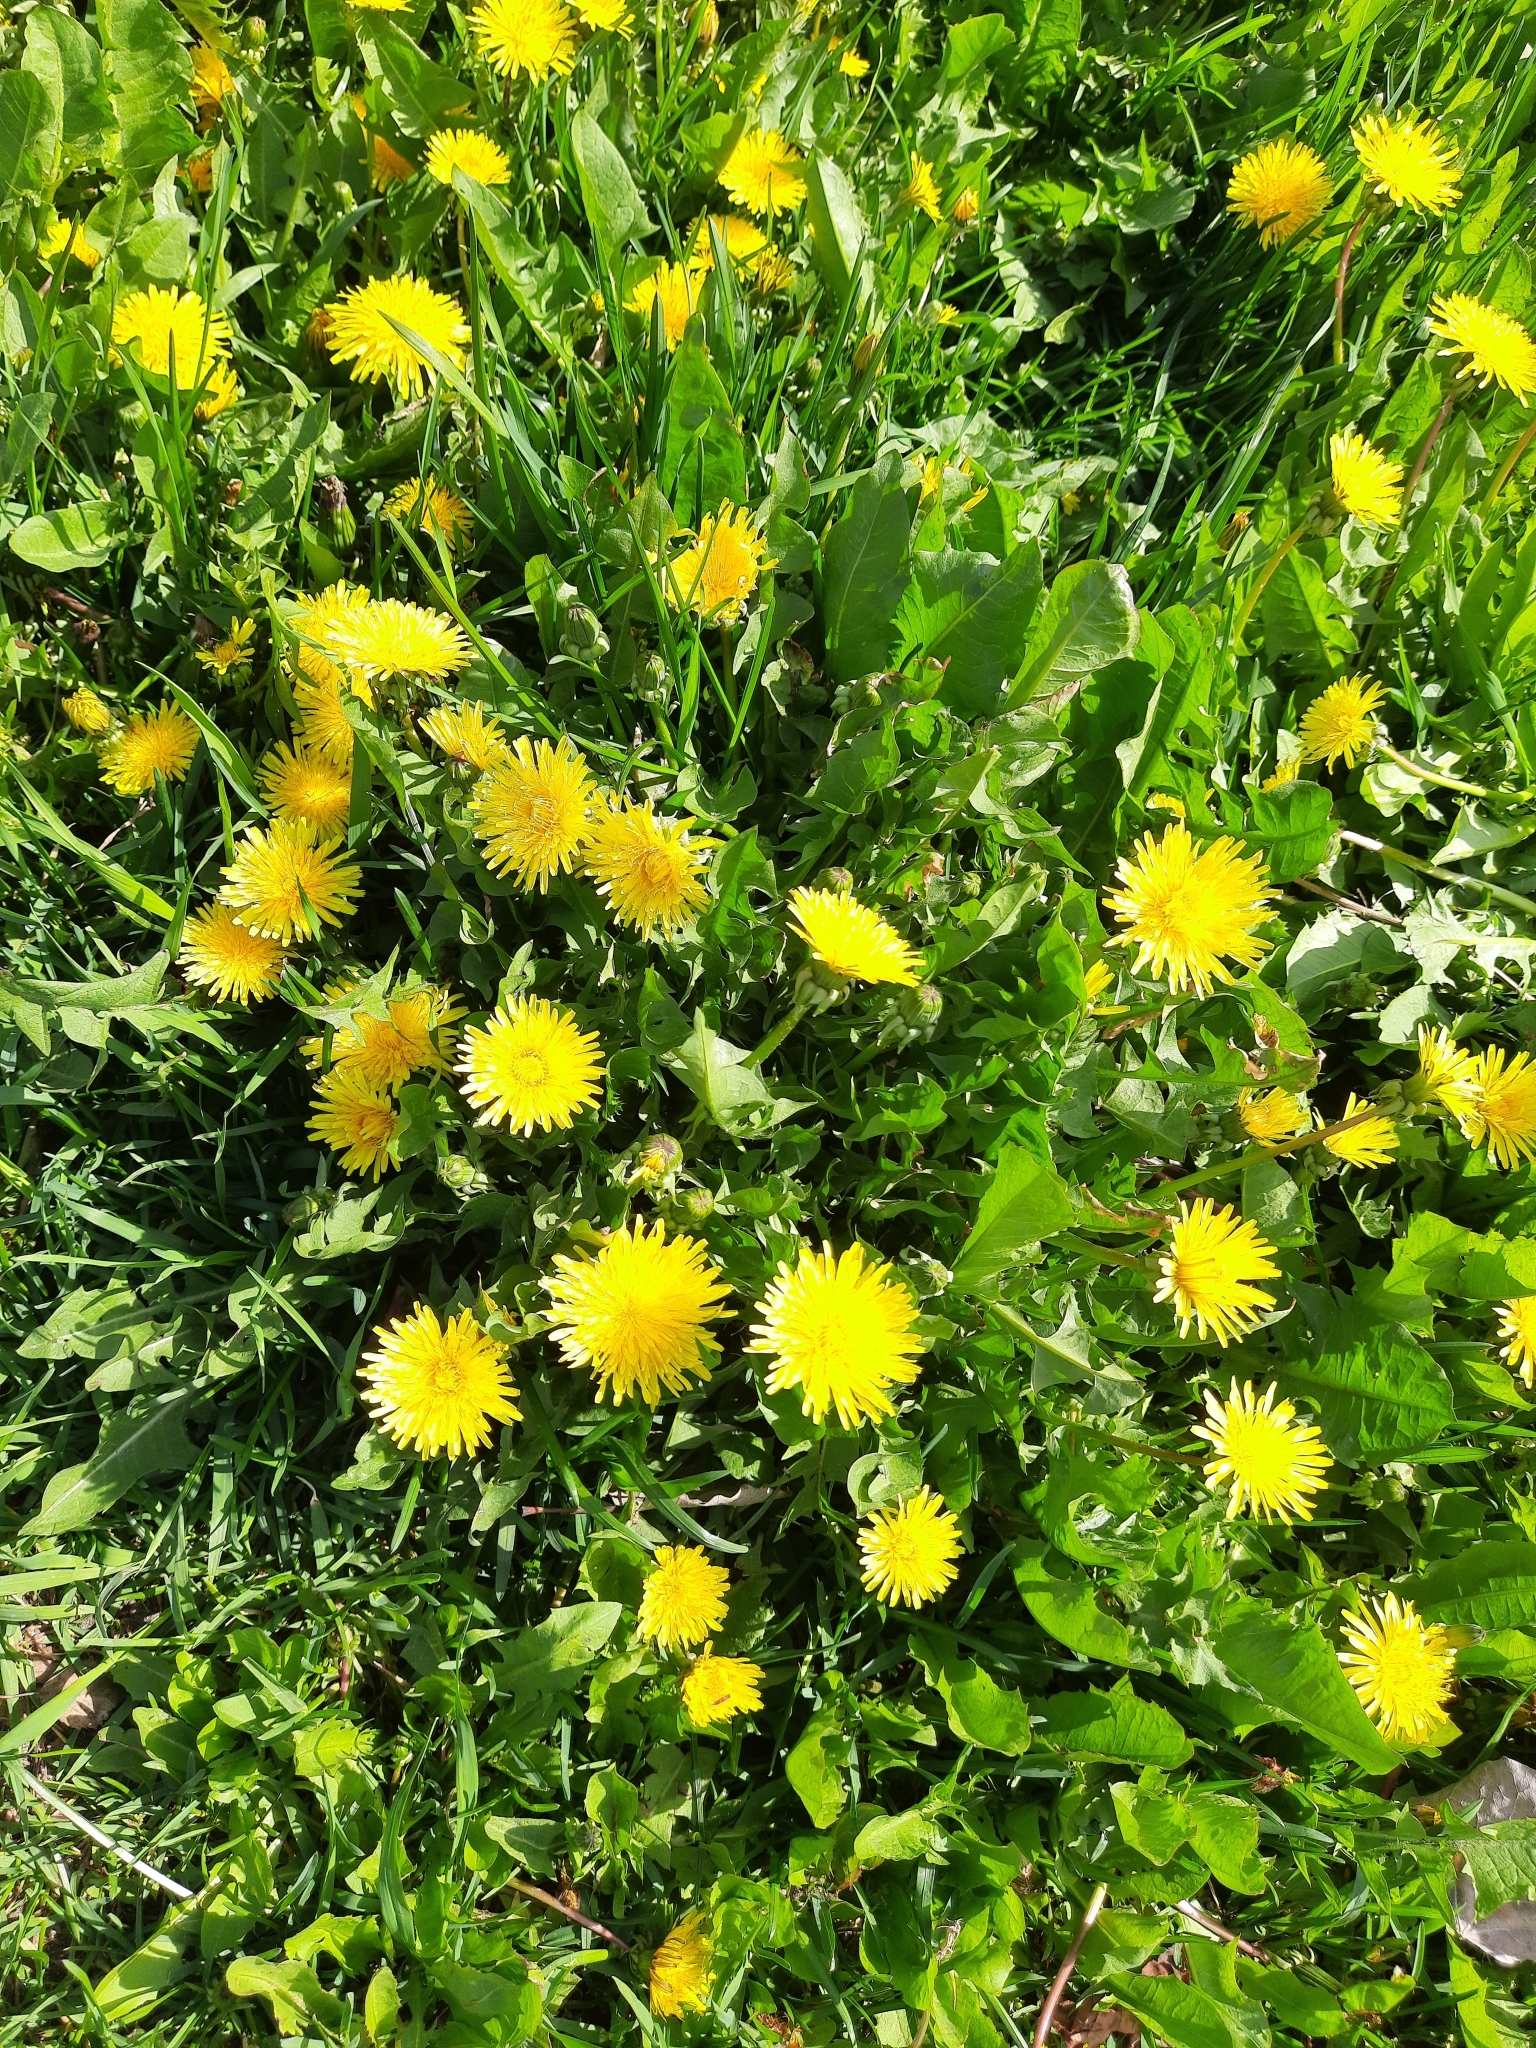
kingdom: Plantae
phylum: Tracheophyta
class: Magnoliopsida
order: Asterales
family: Asteraceae
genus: Taraxacum
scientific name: Taraxacum officinale
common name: Common dandelion
